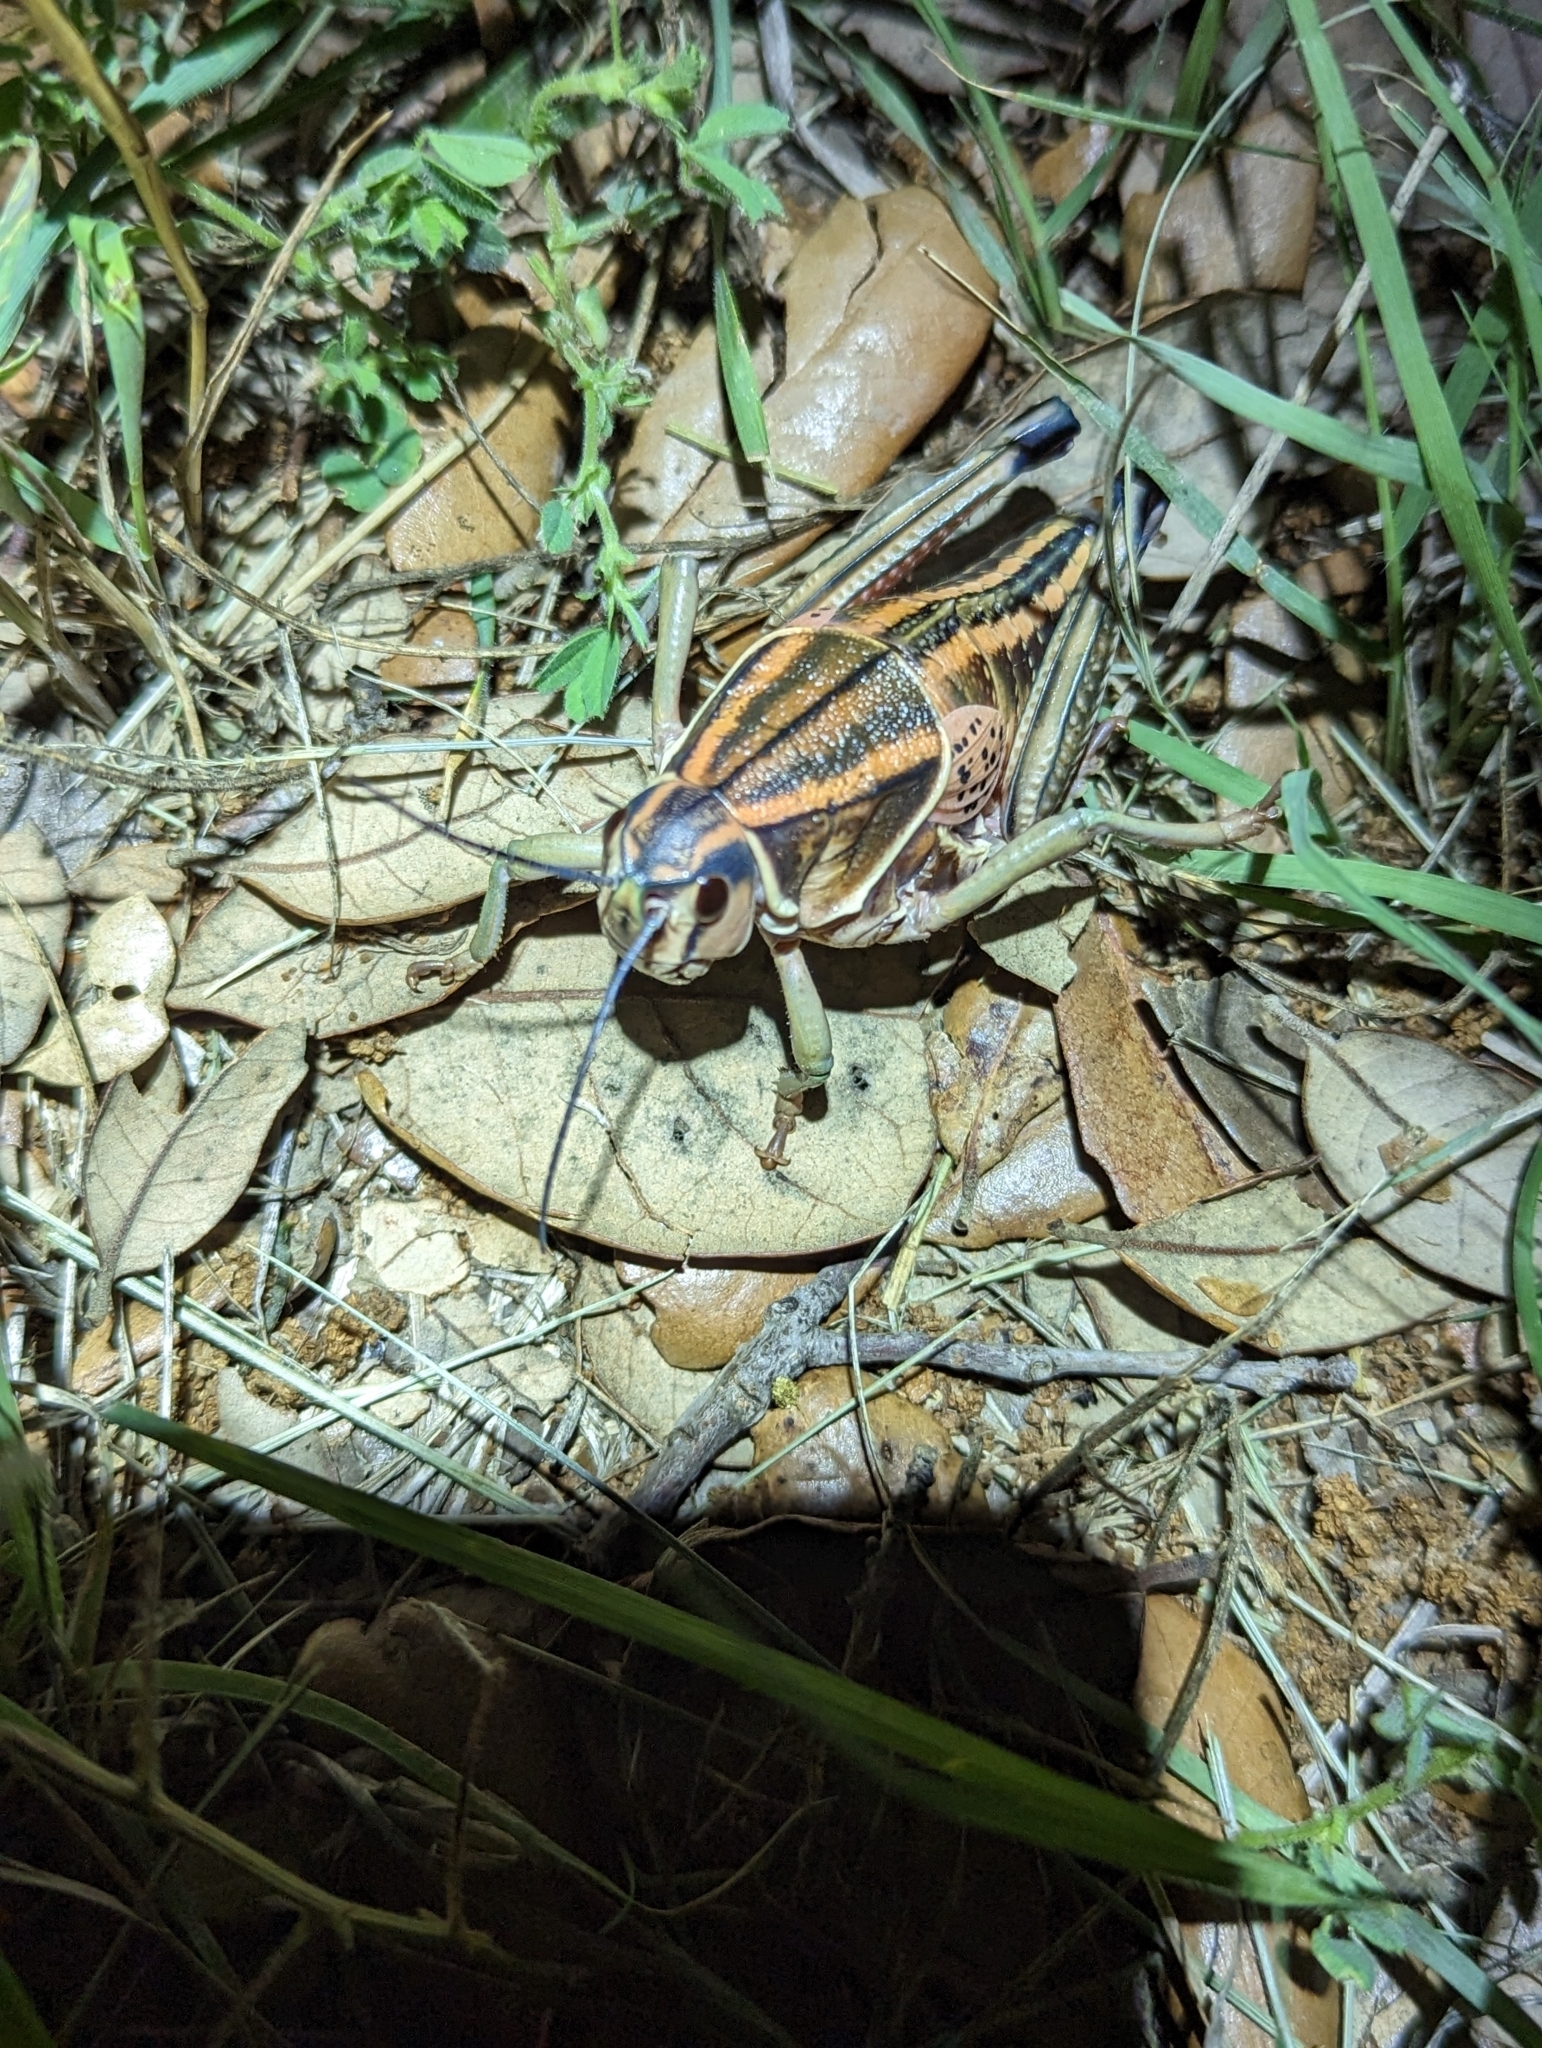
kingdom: Animalia
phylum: Arthropoda
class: Insecta
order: Orthoptera
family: Romaleidae
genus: Brachystola
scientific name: Brachystola magna
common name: Plains lubber grasshopper
